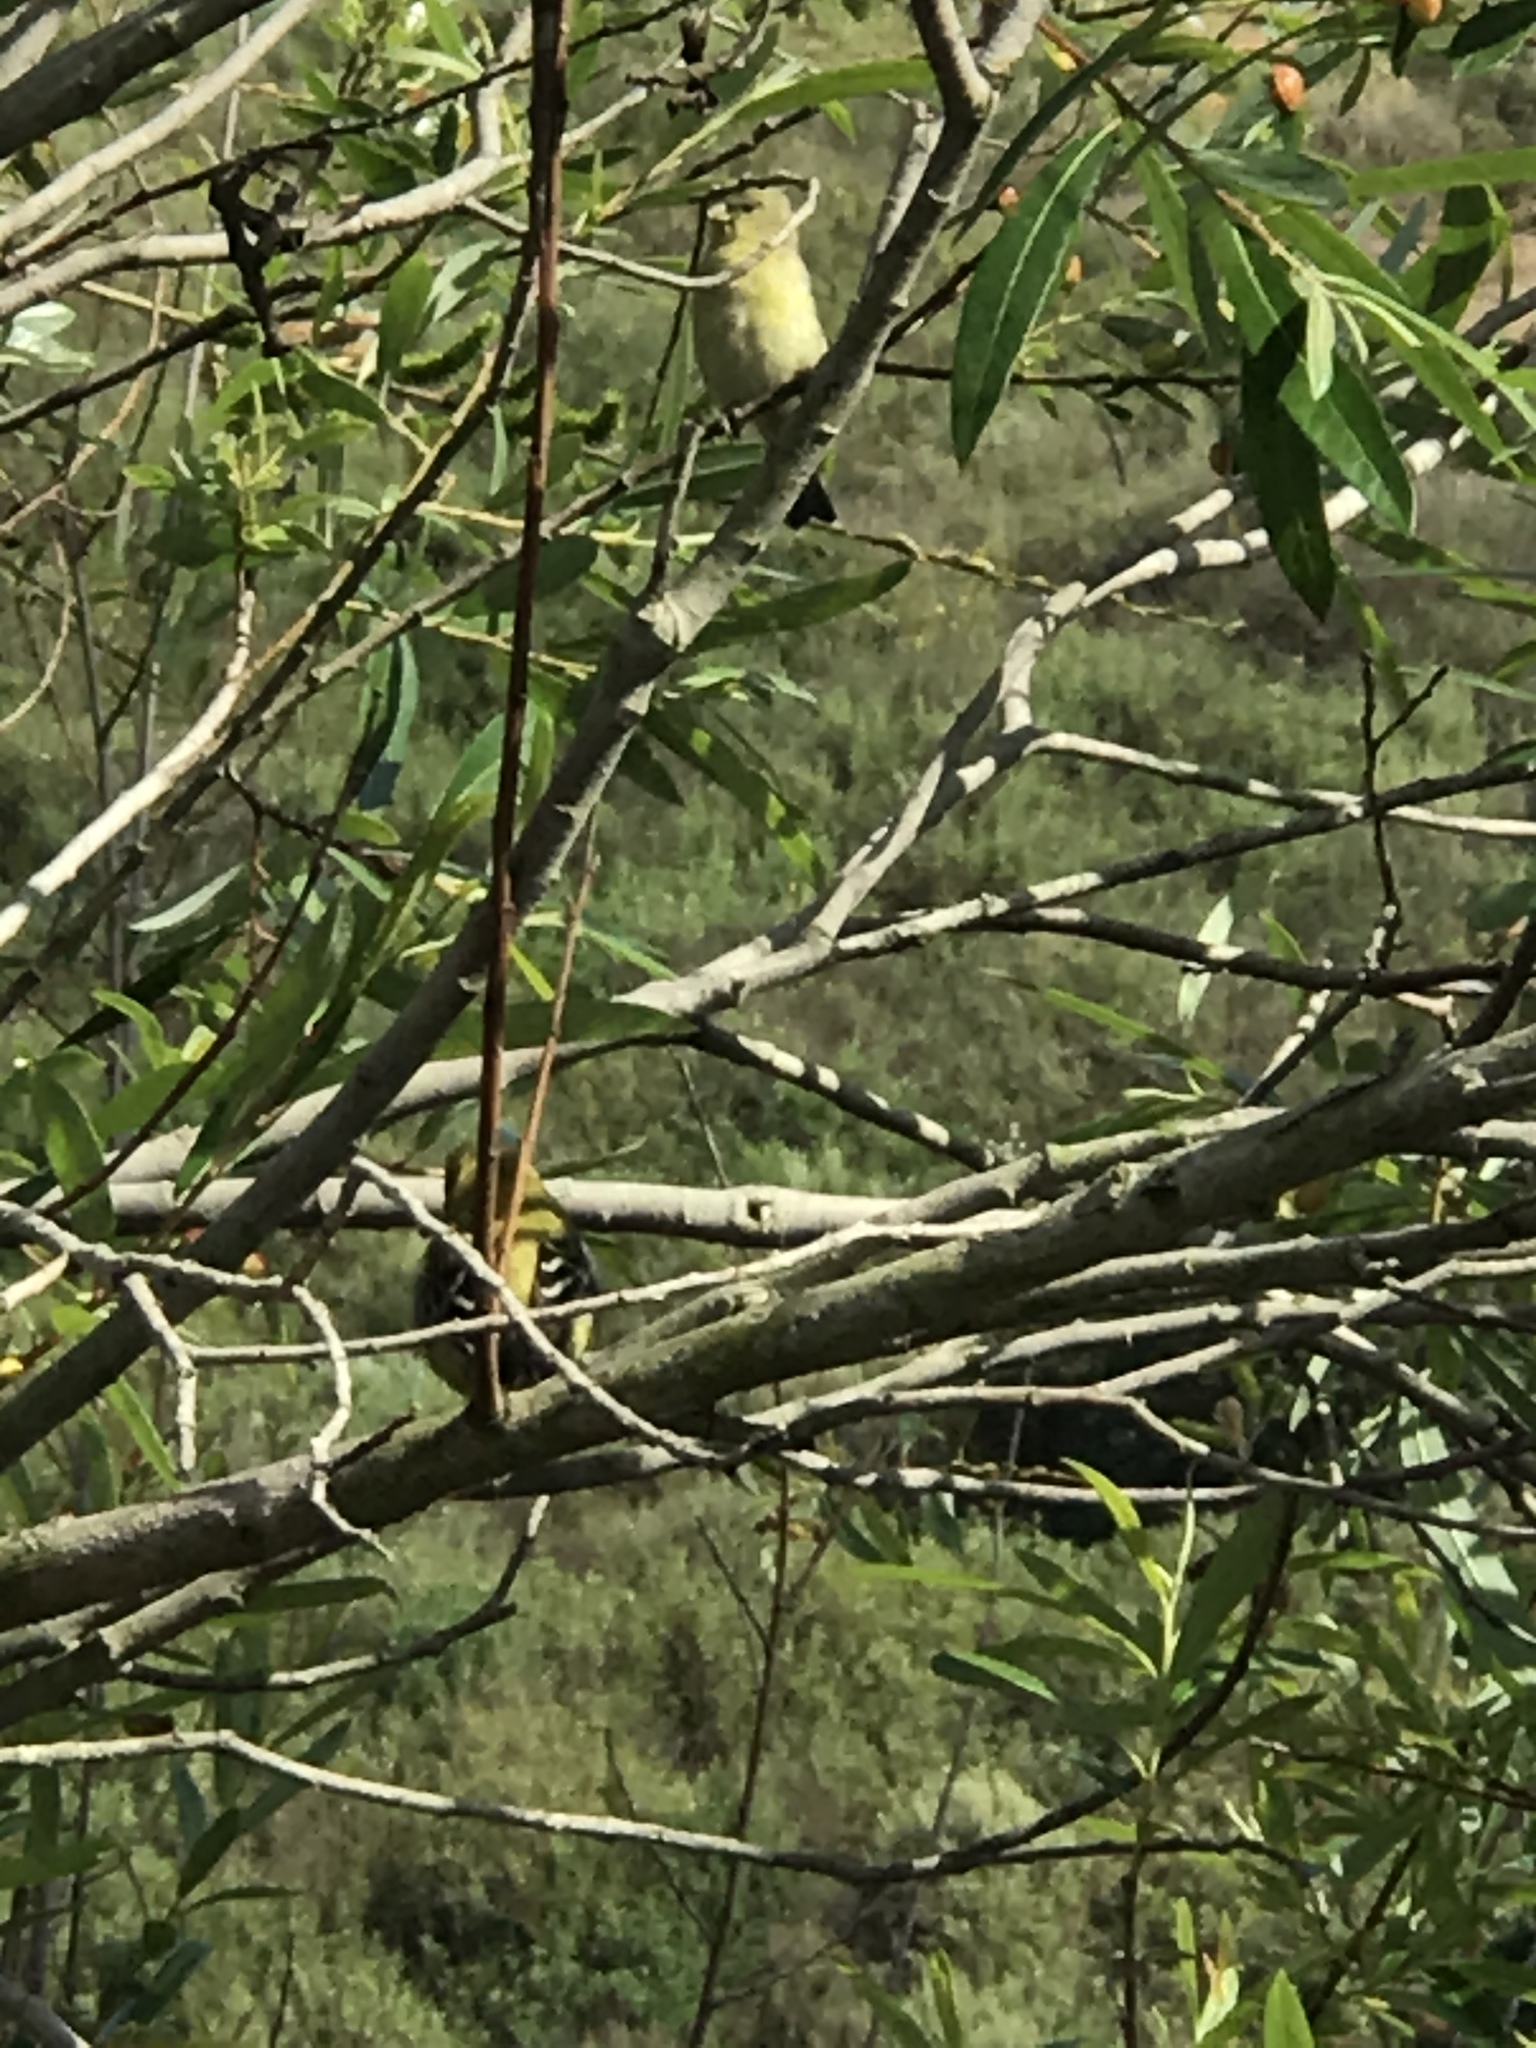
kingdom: Animalia
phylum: Chordata
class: Aves
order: Passeriformes
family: Fringillidae
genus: Spinus
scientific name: Spinus psaltria
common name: Lesser goldfinch
